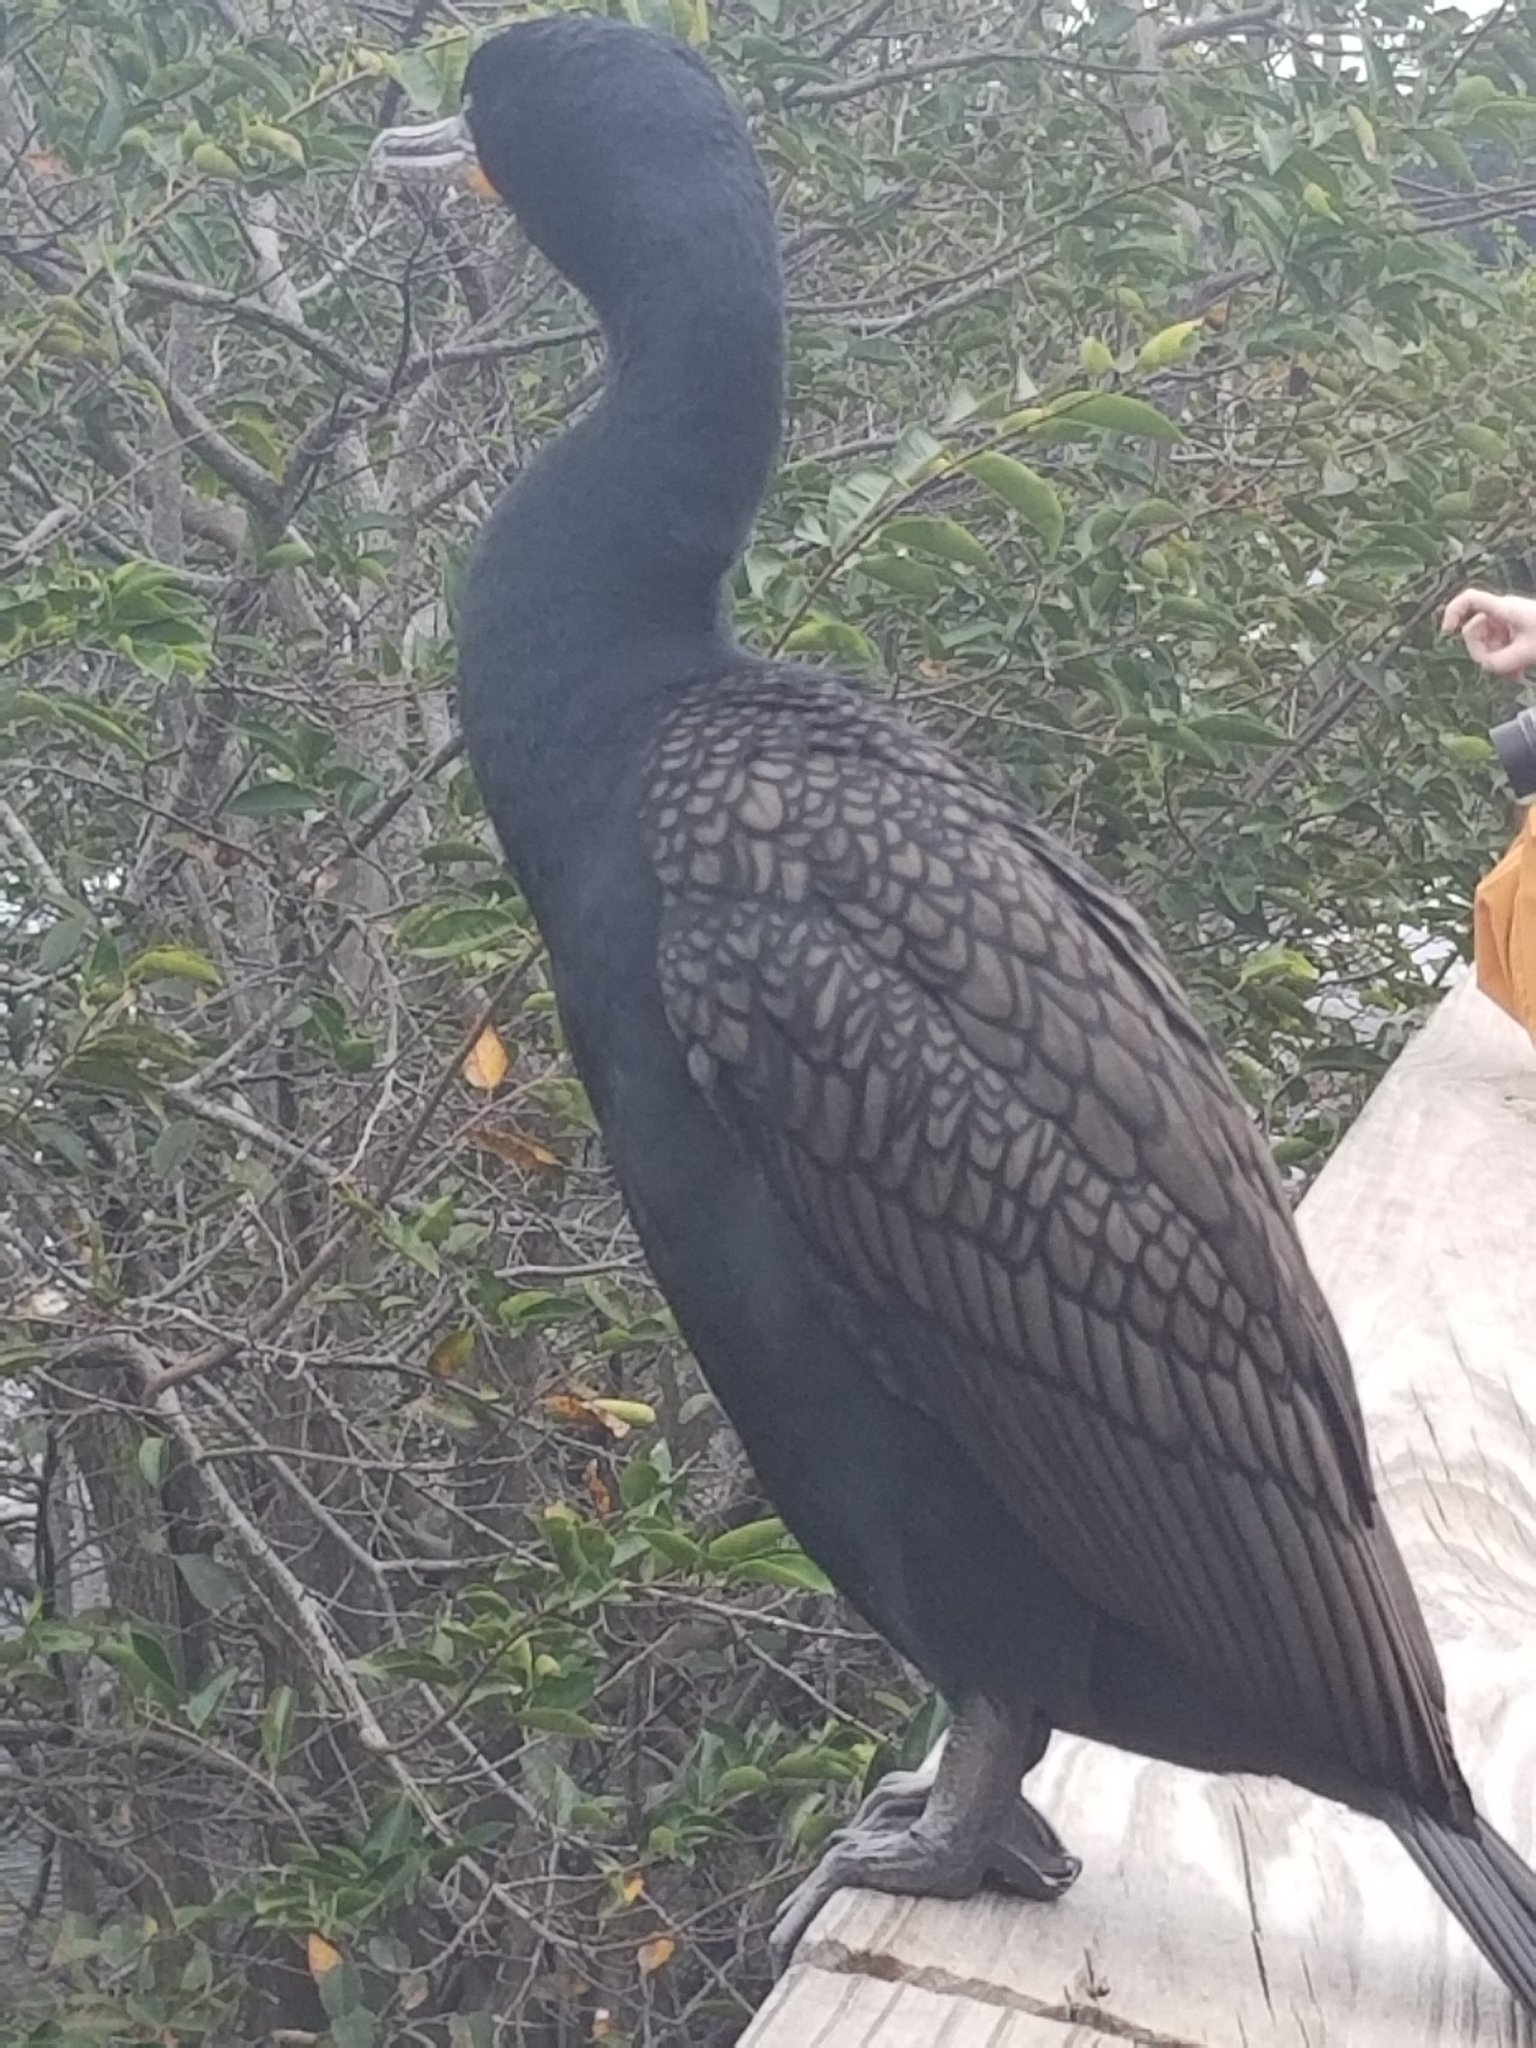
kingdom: Animalia
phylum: Chordata
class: Aves
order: Suliformes
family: Phalacrocoracidae
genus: Phalacrocorax
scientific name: Phalacrocorax auritus
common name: Double-crested cormorant
